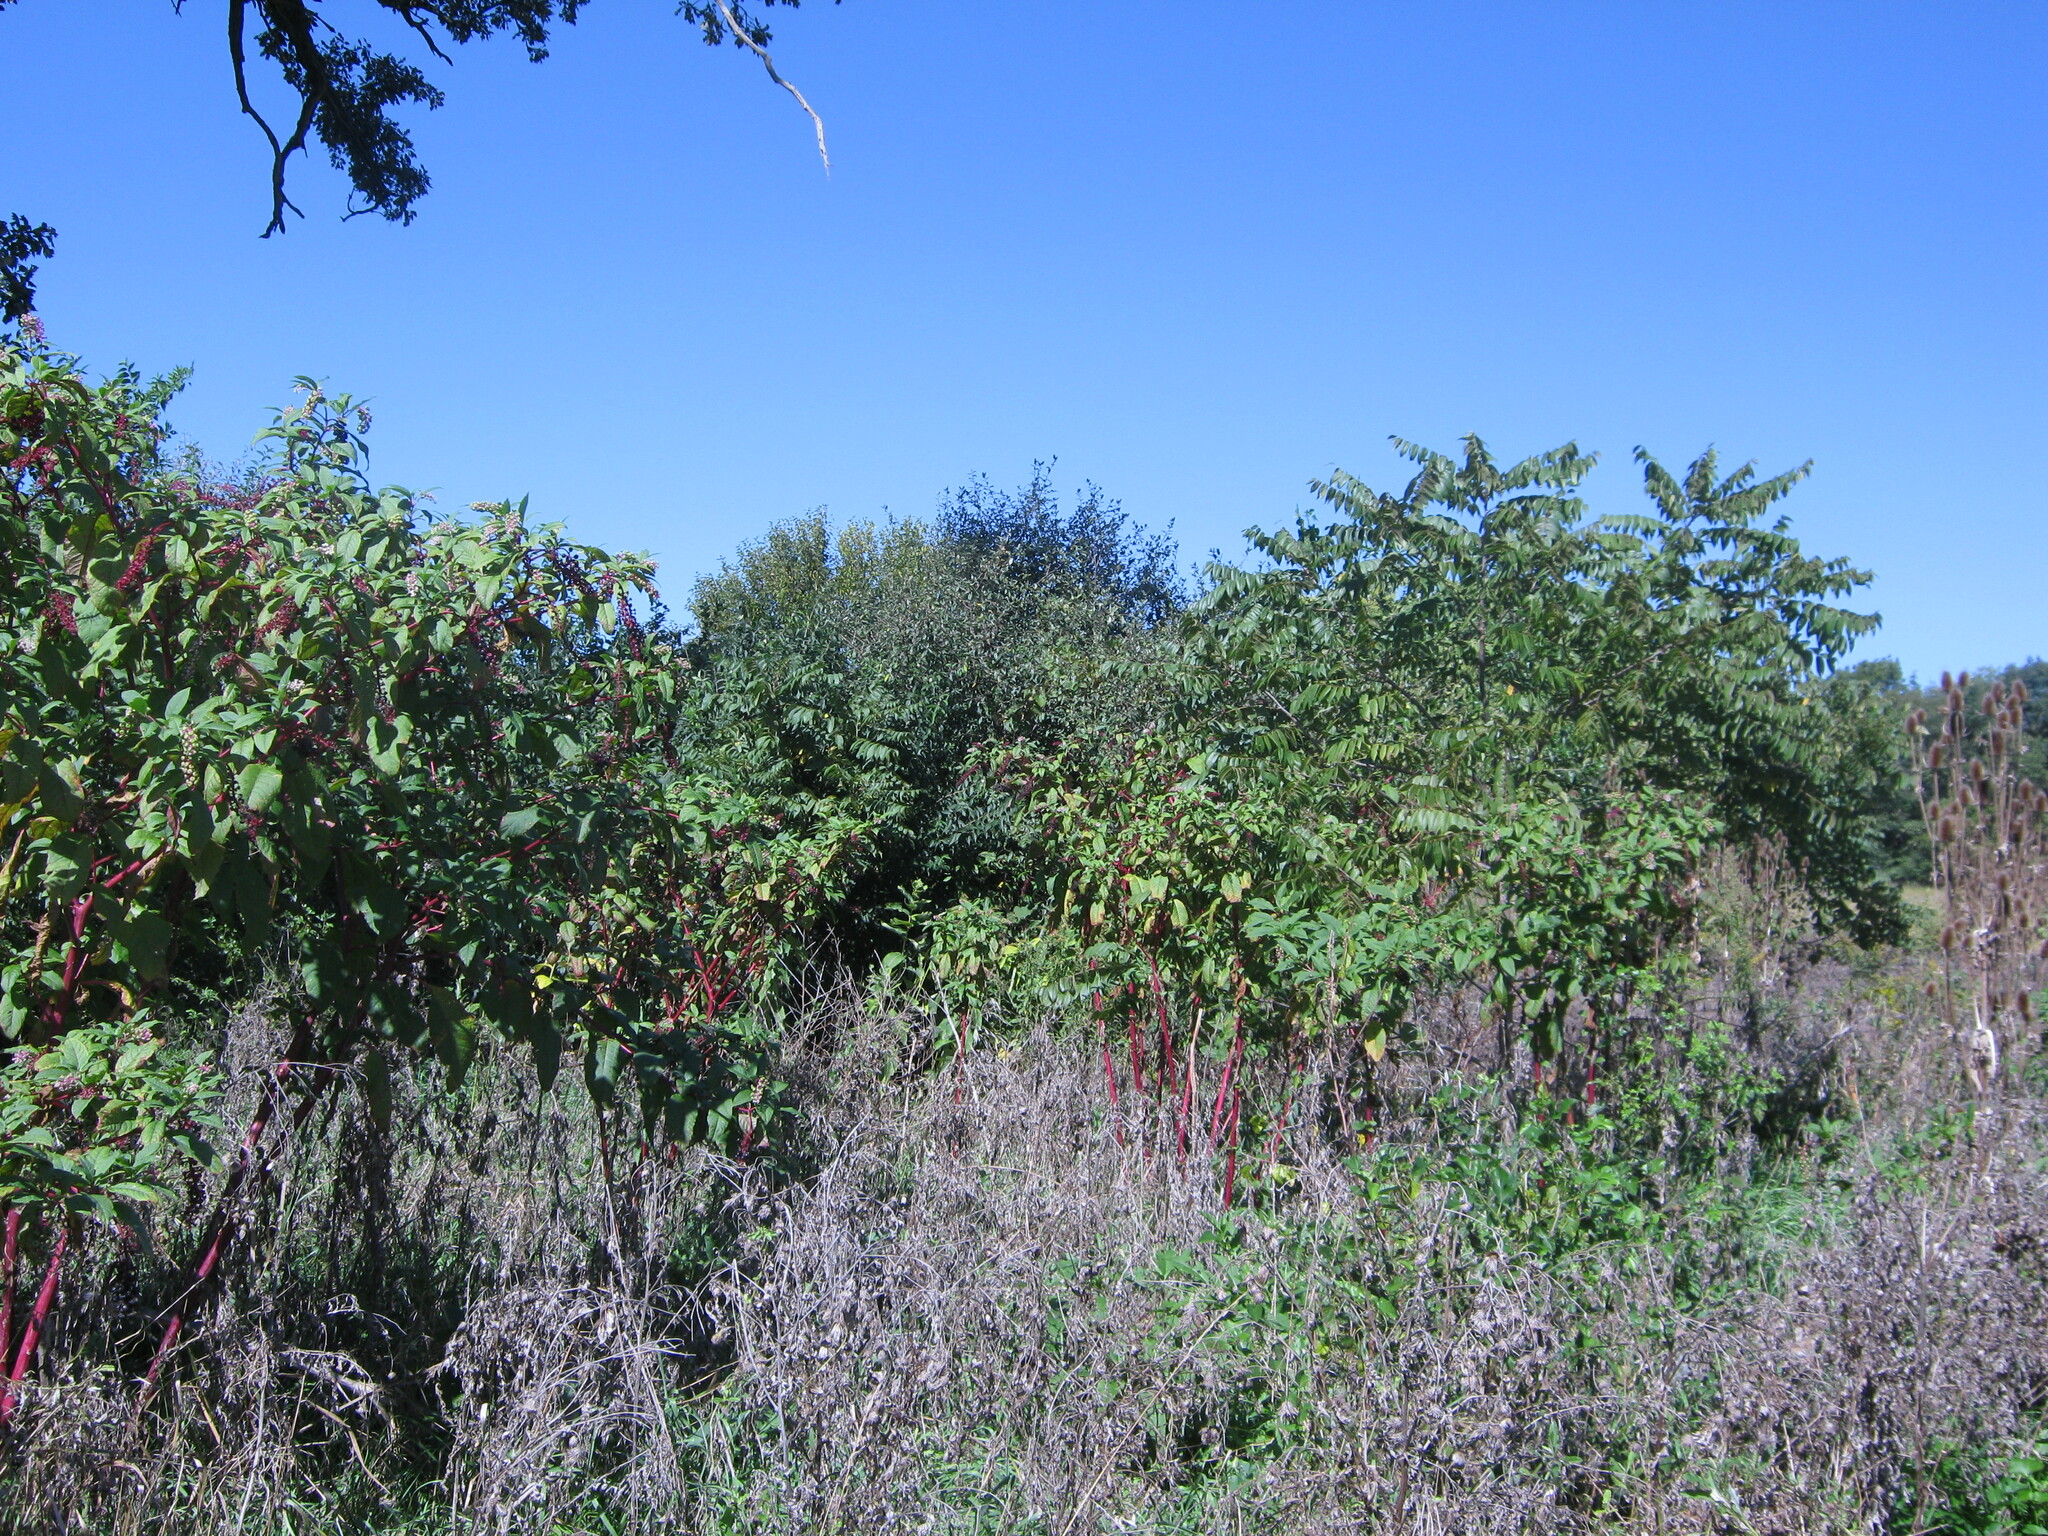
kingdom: Plantae
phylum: Tracheophyta
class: Magnoliopsida
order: Caryophyllales
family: Phytolaccaceae
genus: Phytolacca
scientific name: Phytolacca americana
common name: American pokeweed
